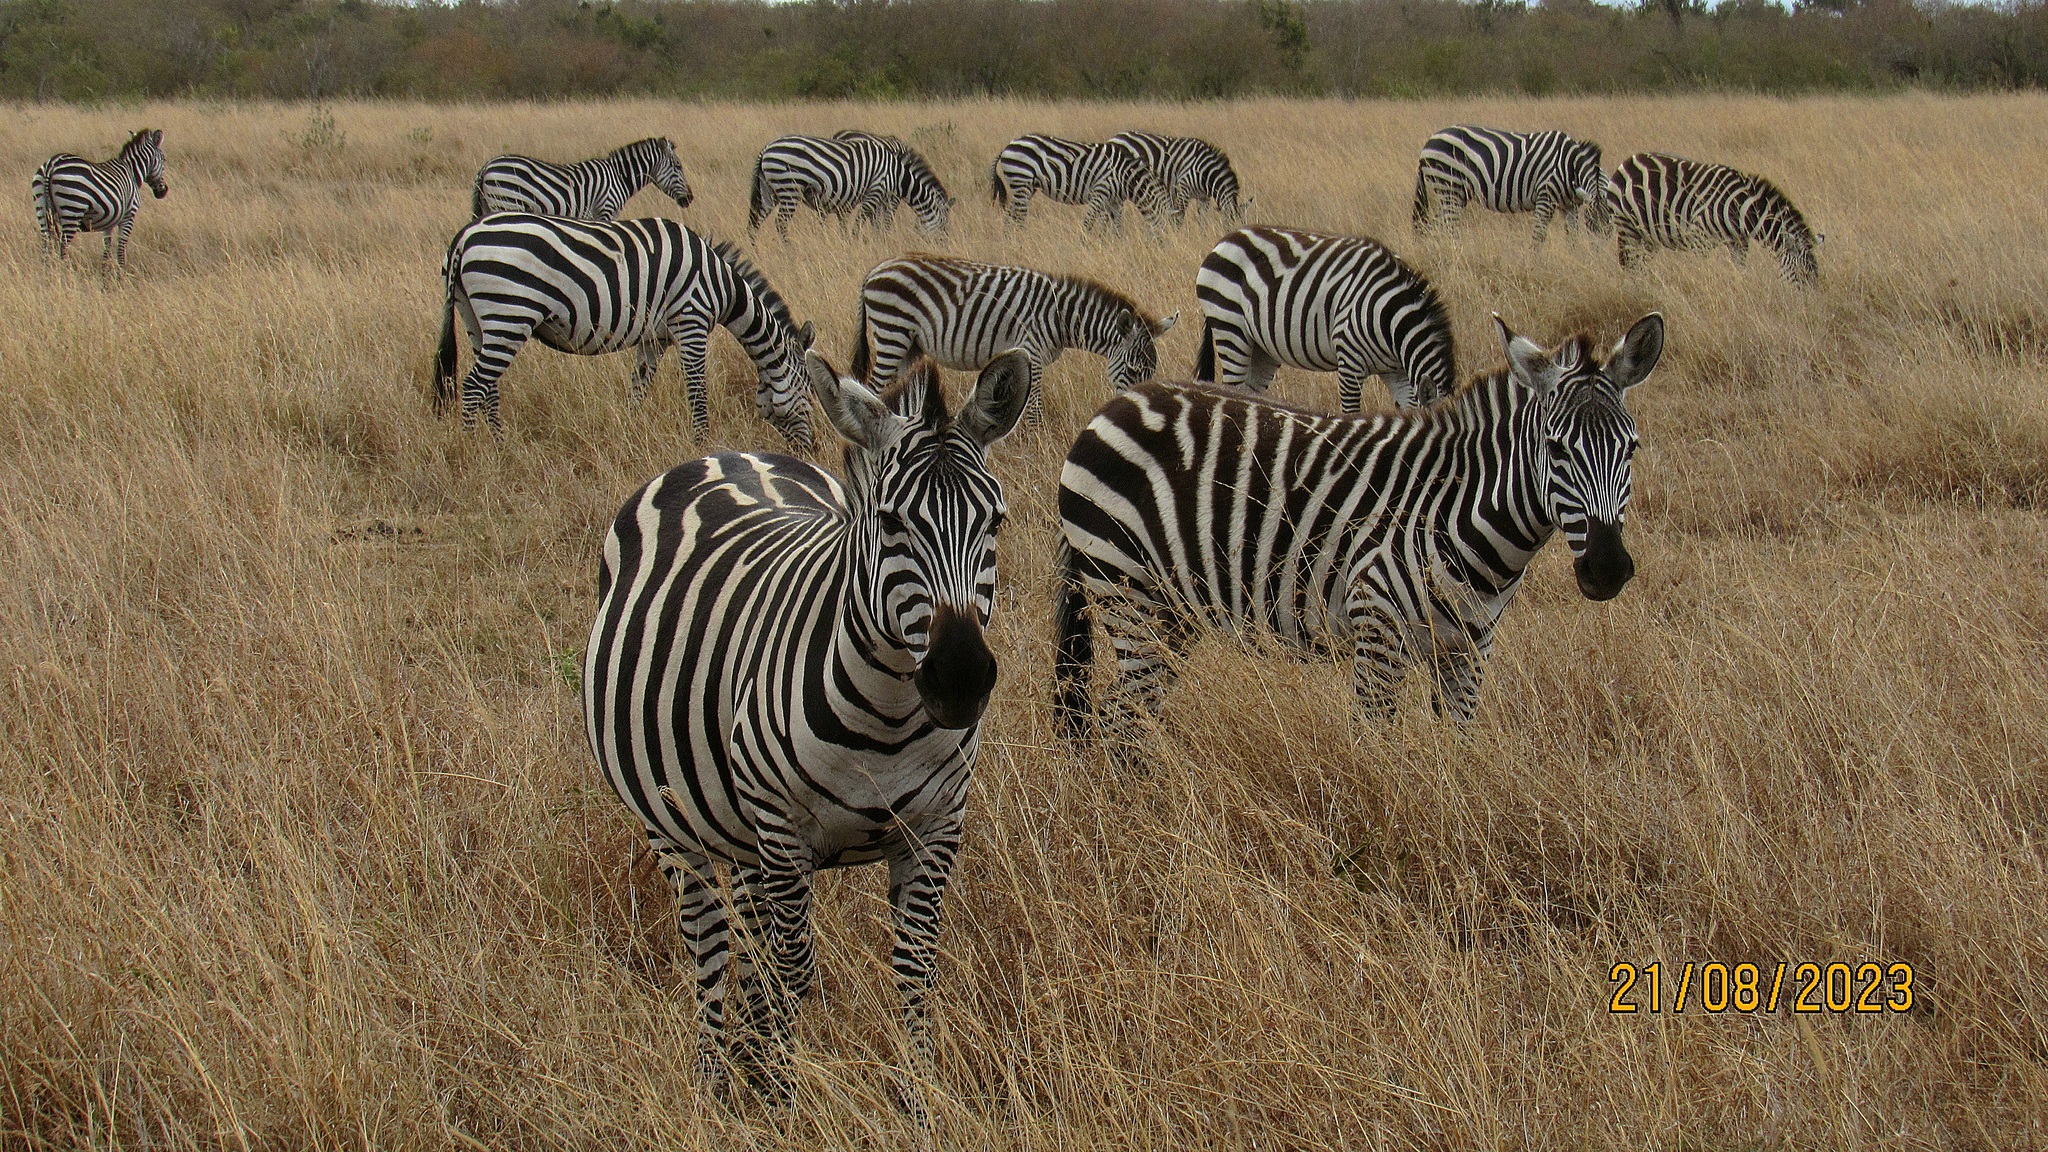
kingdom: Animalia
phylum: Chordata
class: Mammalia
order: Perissodactyla
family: Equidae
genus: Equus
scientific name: Equus quagga
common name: Plains zebra
